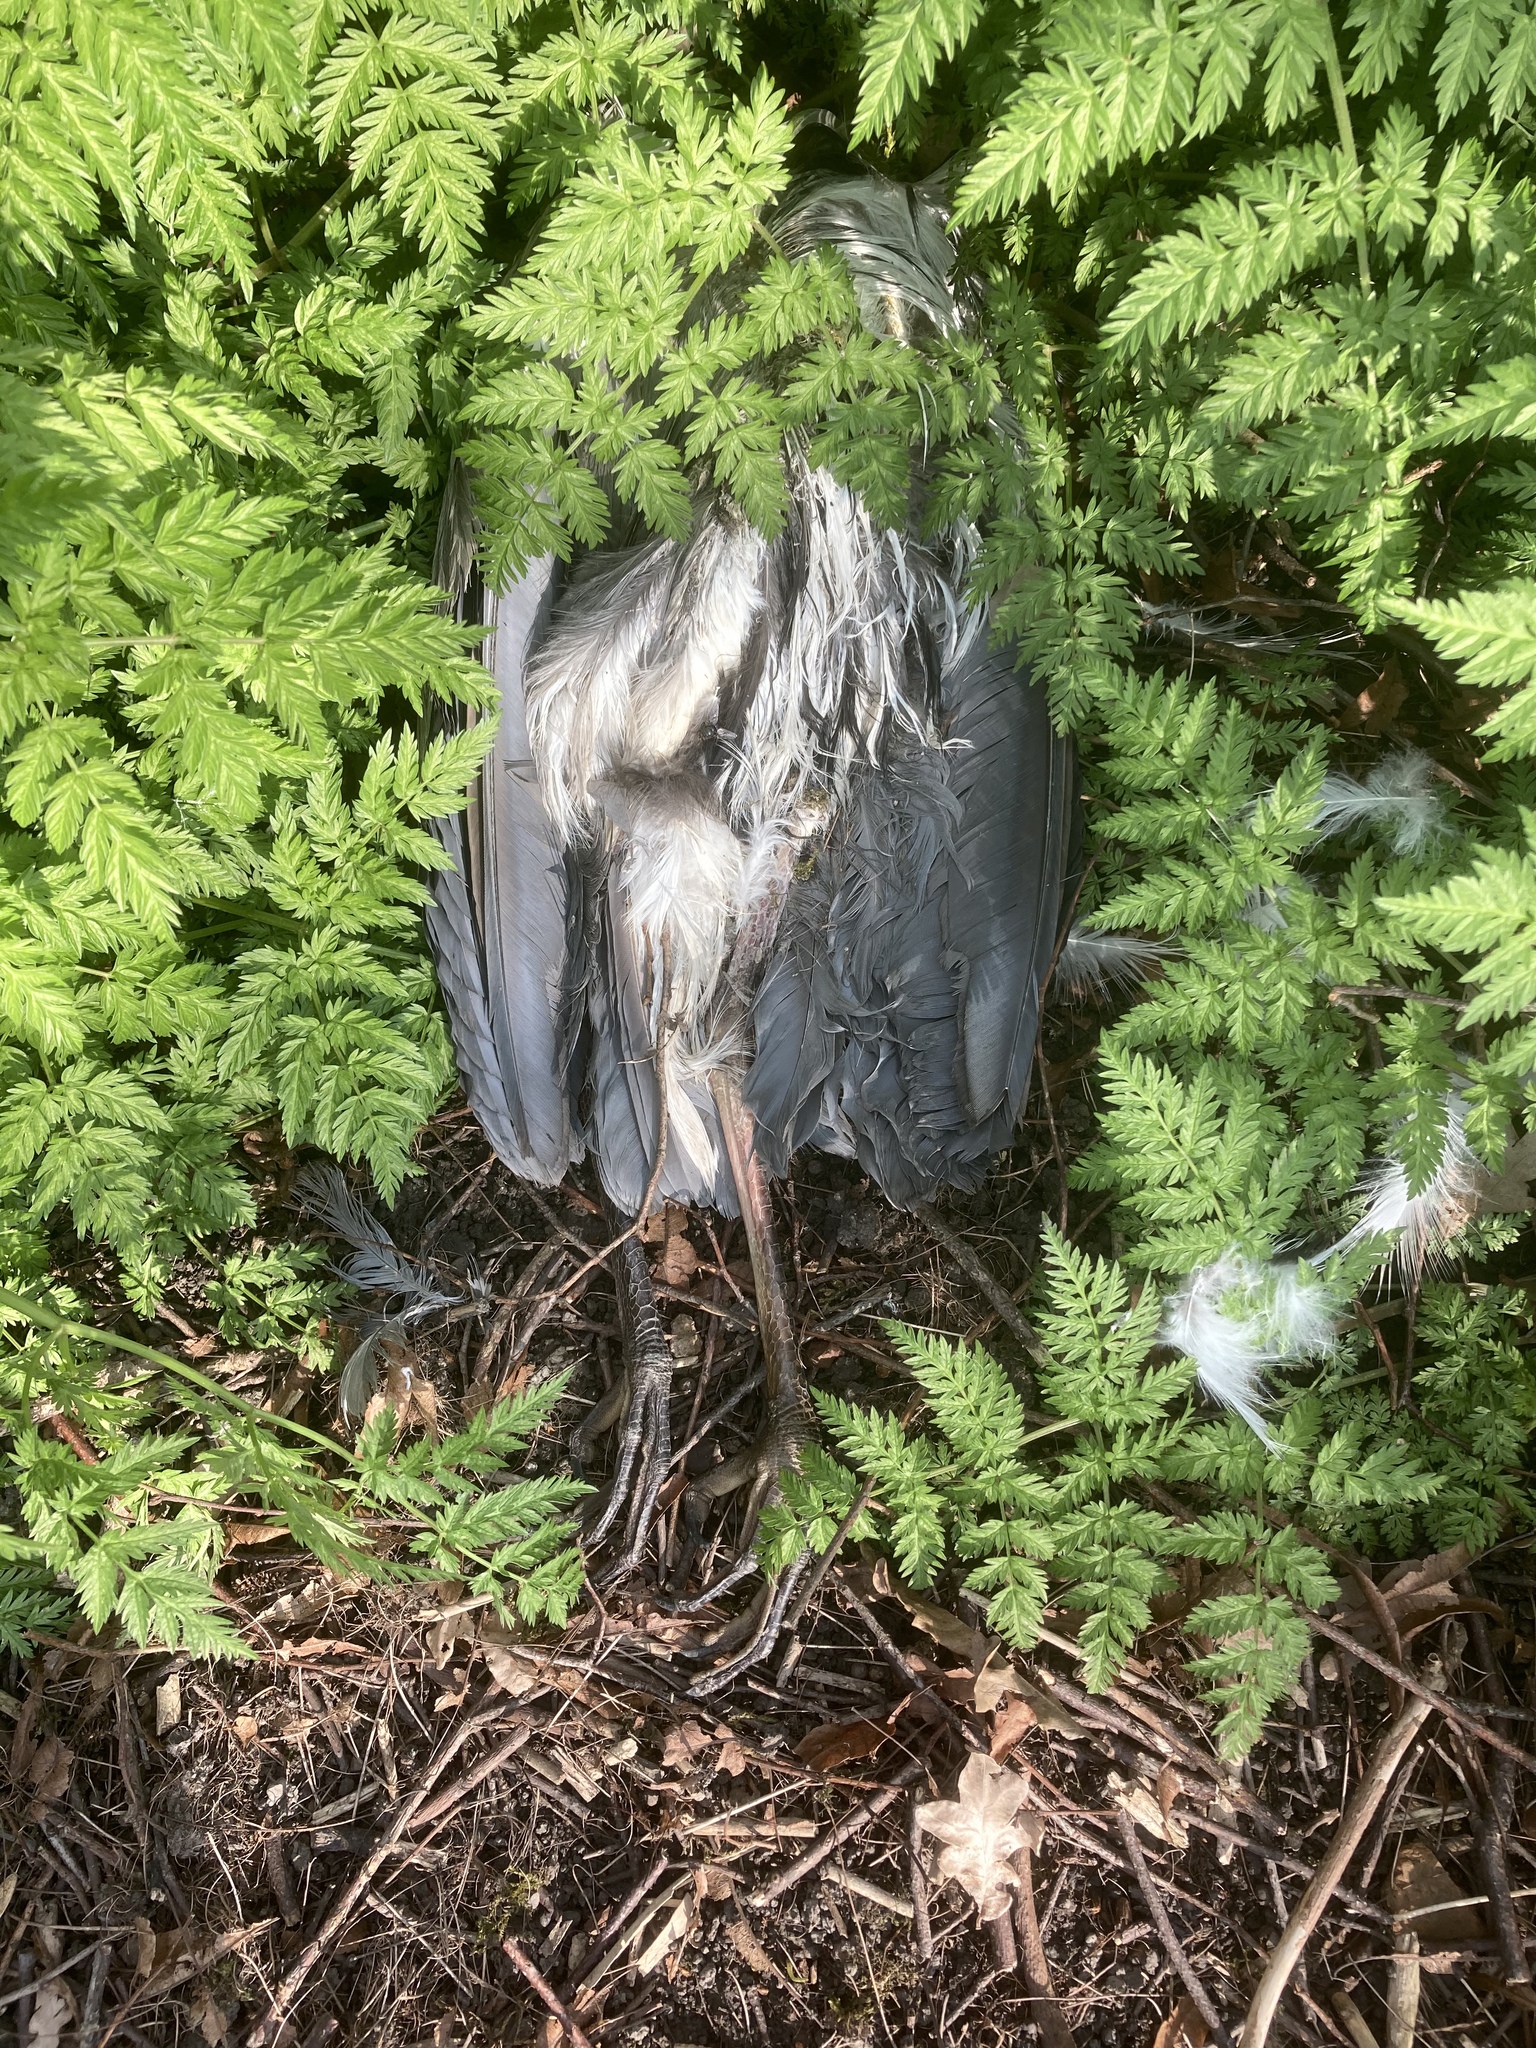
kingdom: Animalia
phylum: Chordata
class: Aves
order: Pelecaniformes
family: Ardeidae
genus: Ardea
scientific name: Ardea cinerea
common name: Grey heron
